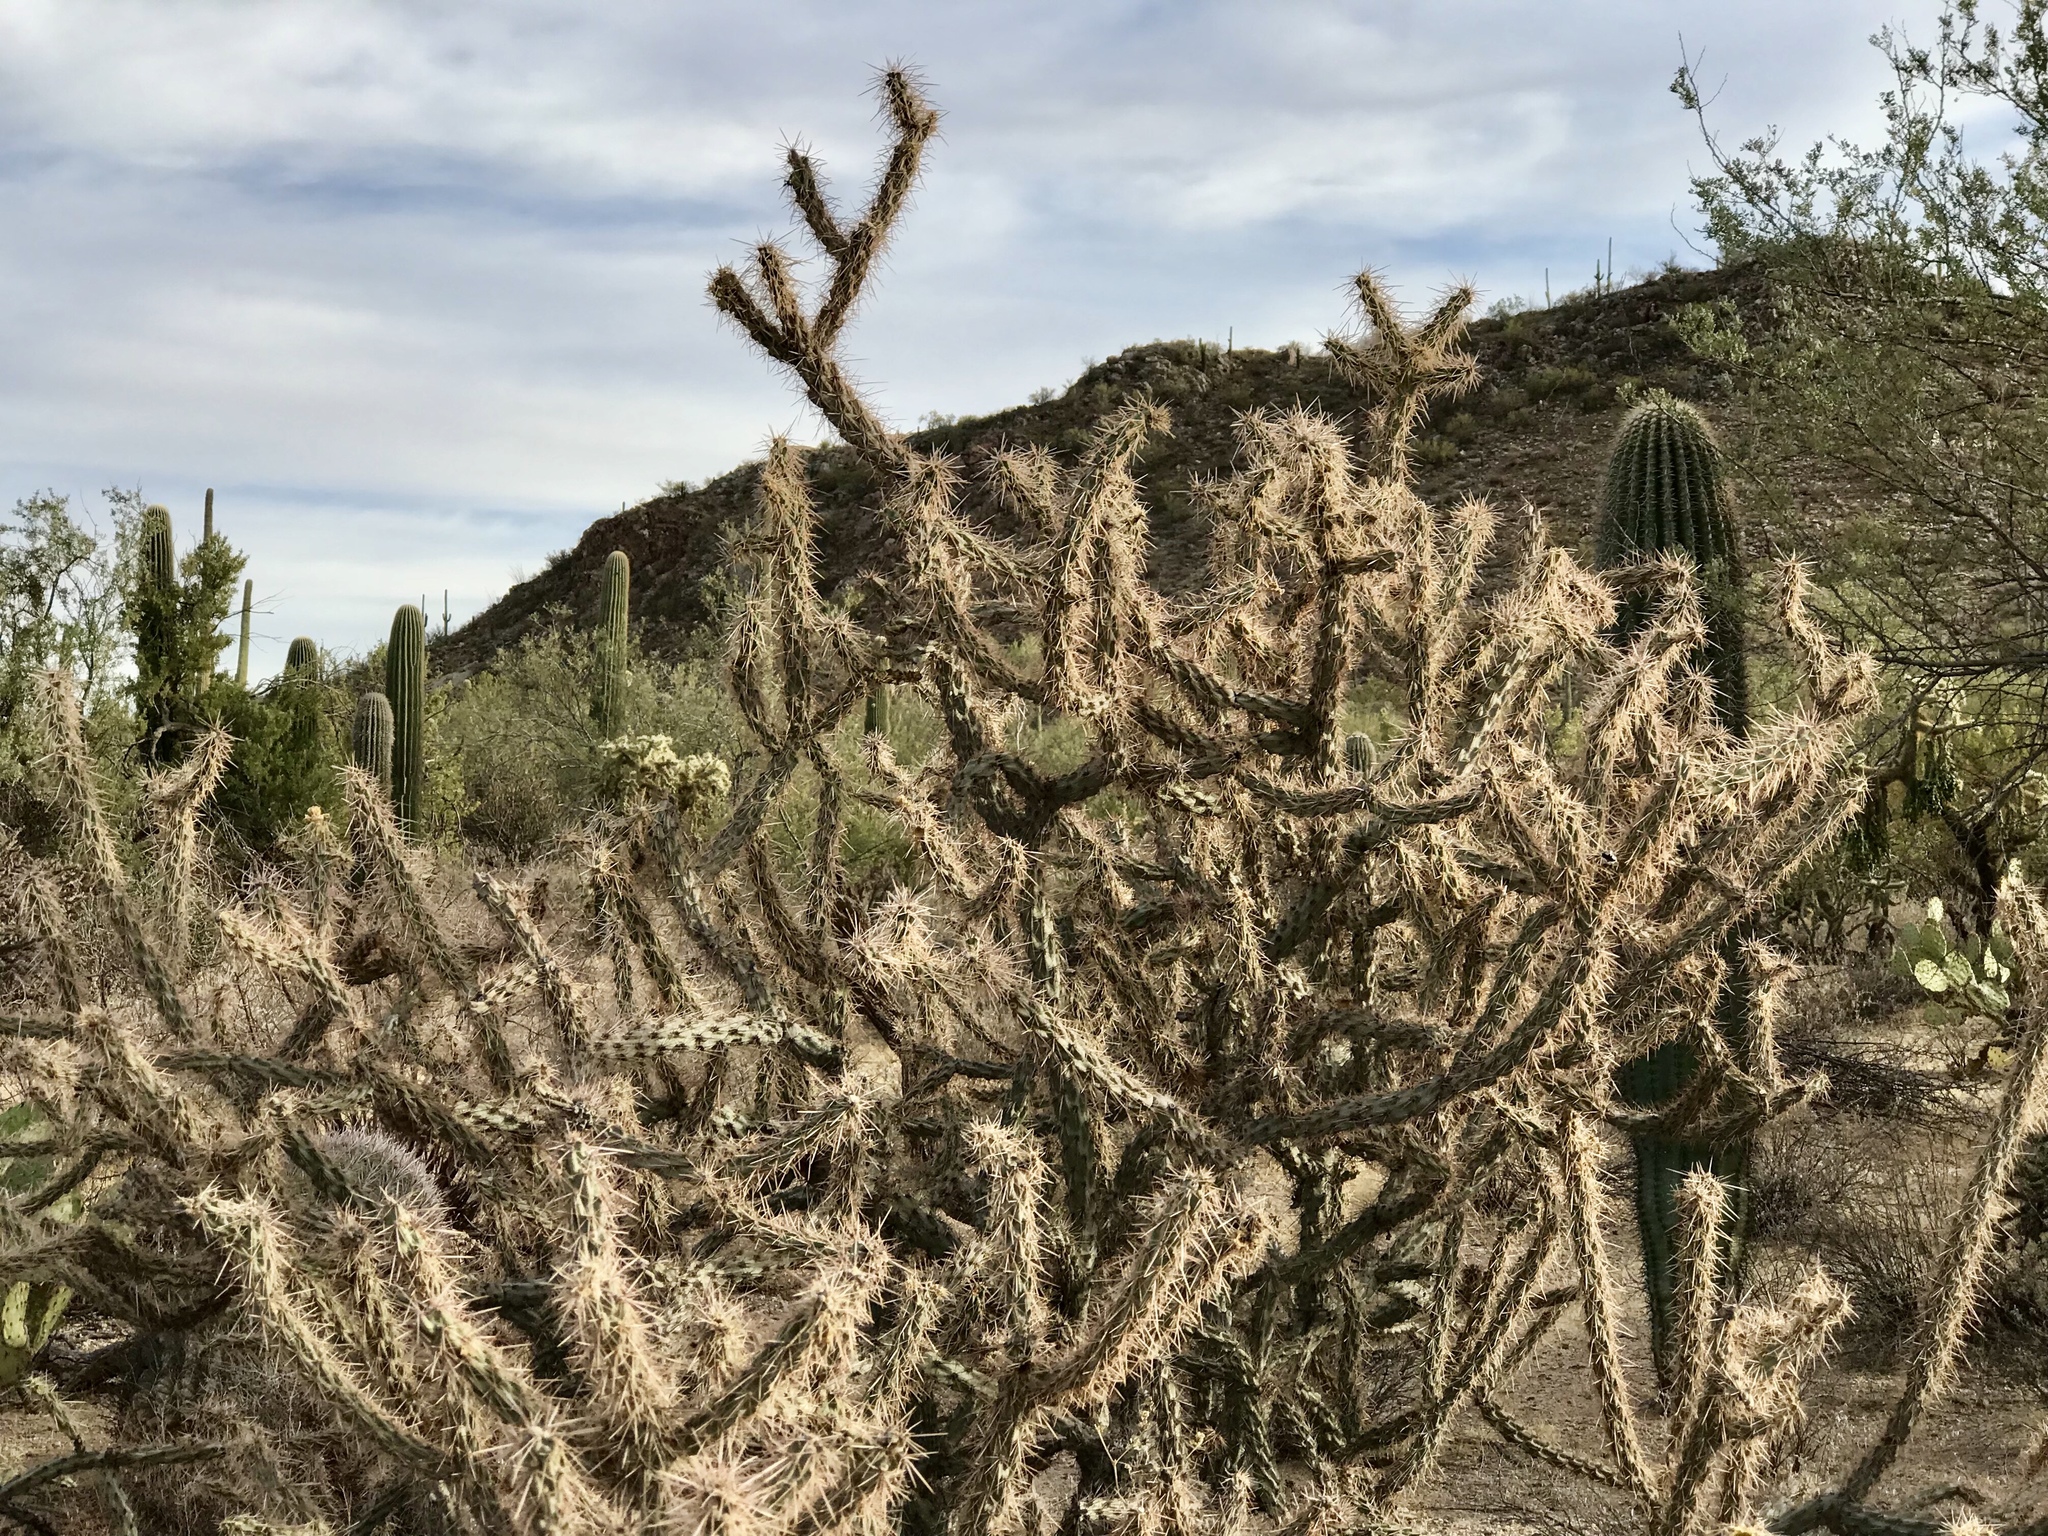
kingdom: Plantae
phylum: Tracheophyta
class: Magnoliopsida
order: Caryophyllales
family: Cactaceae
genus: Cylindropuntia
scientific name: Cylindropuntia acanthocarpa
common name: Buckhorn cholla
